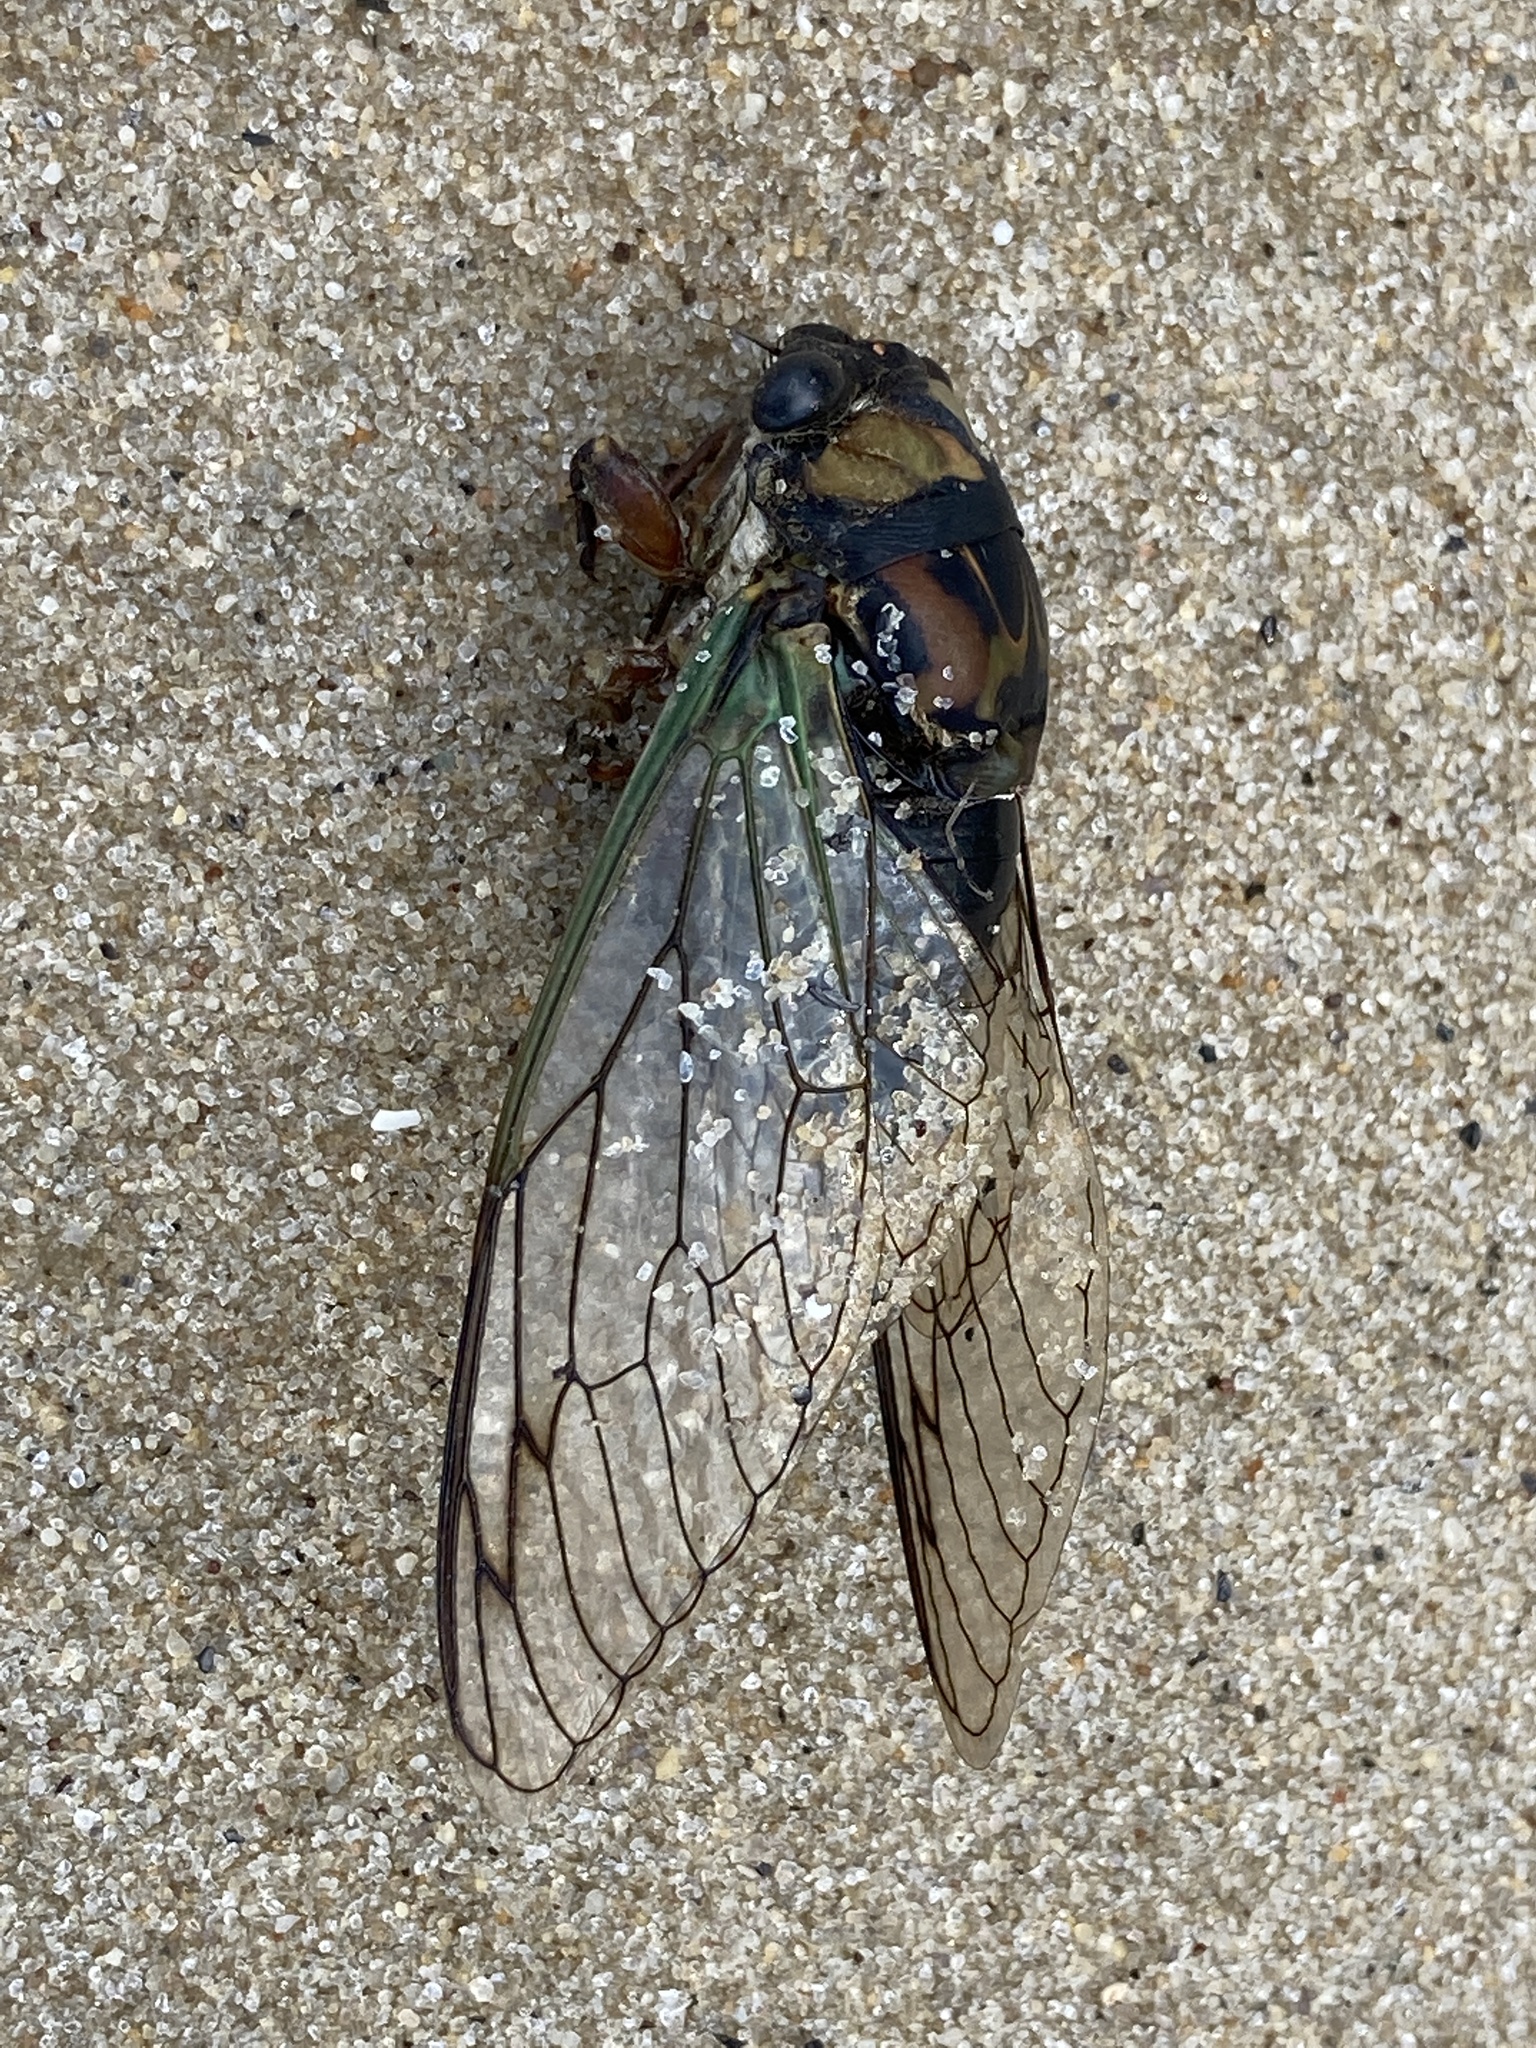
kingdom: Animalia
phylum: Arthropoda
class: Insecta
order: Hemiptera
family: Cicadidae
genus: Neotibicen
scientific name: Neotibicen lyricen
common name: Lyric cicada
